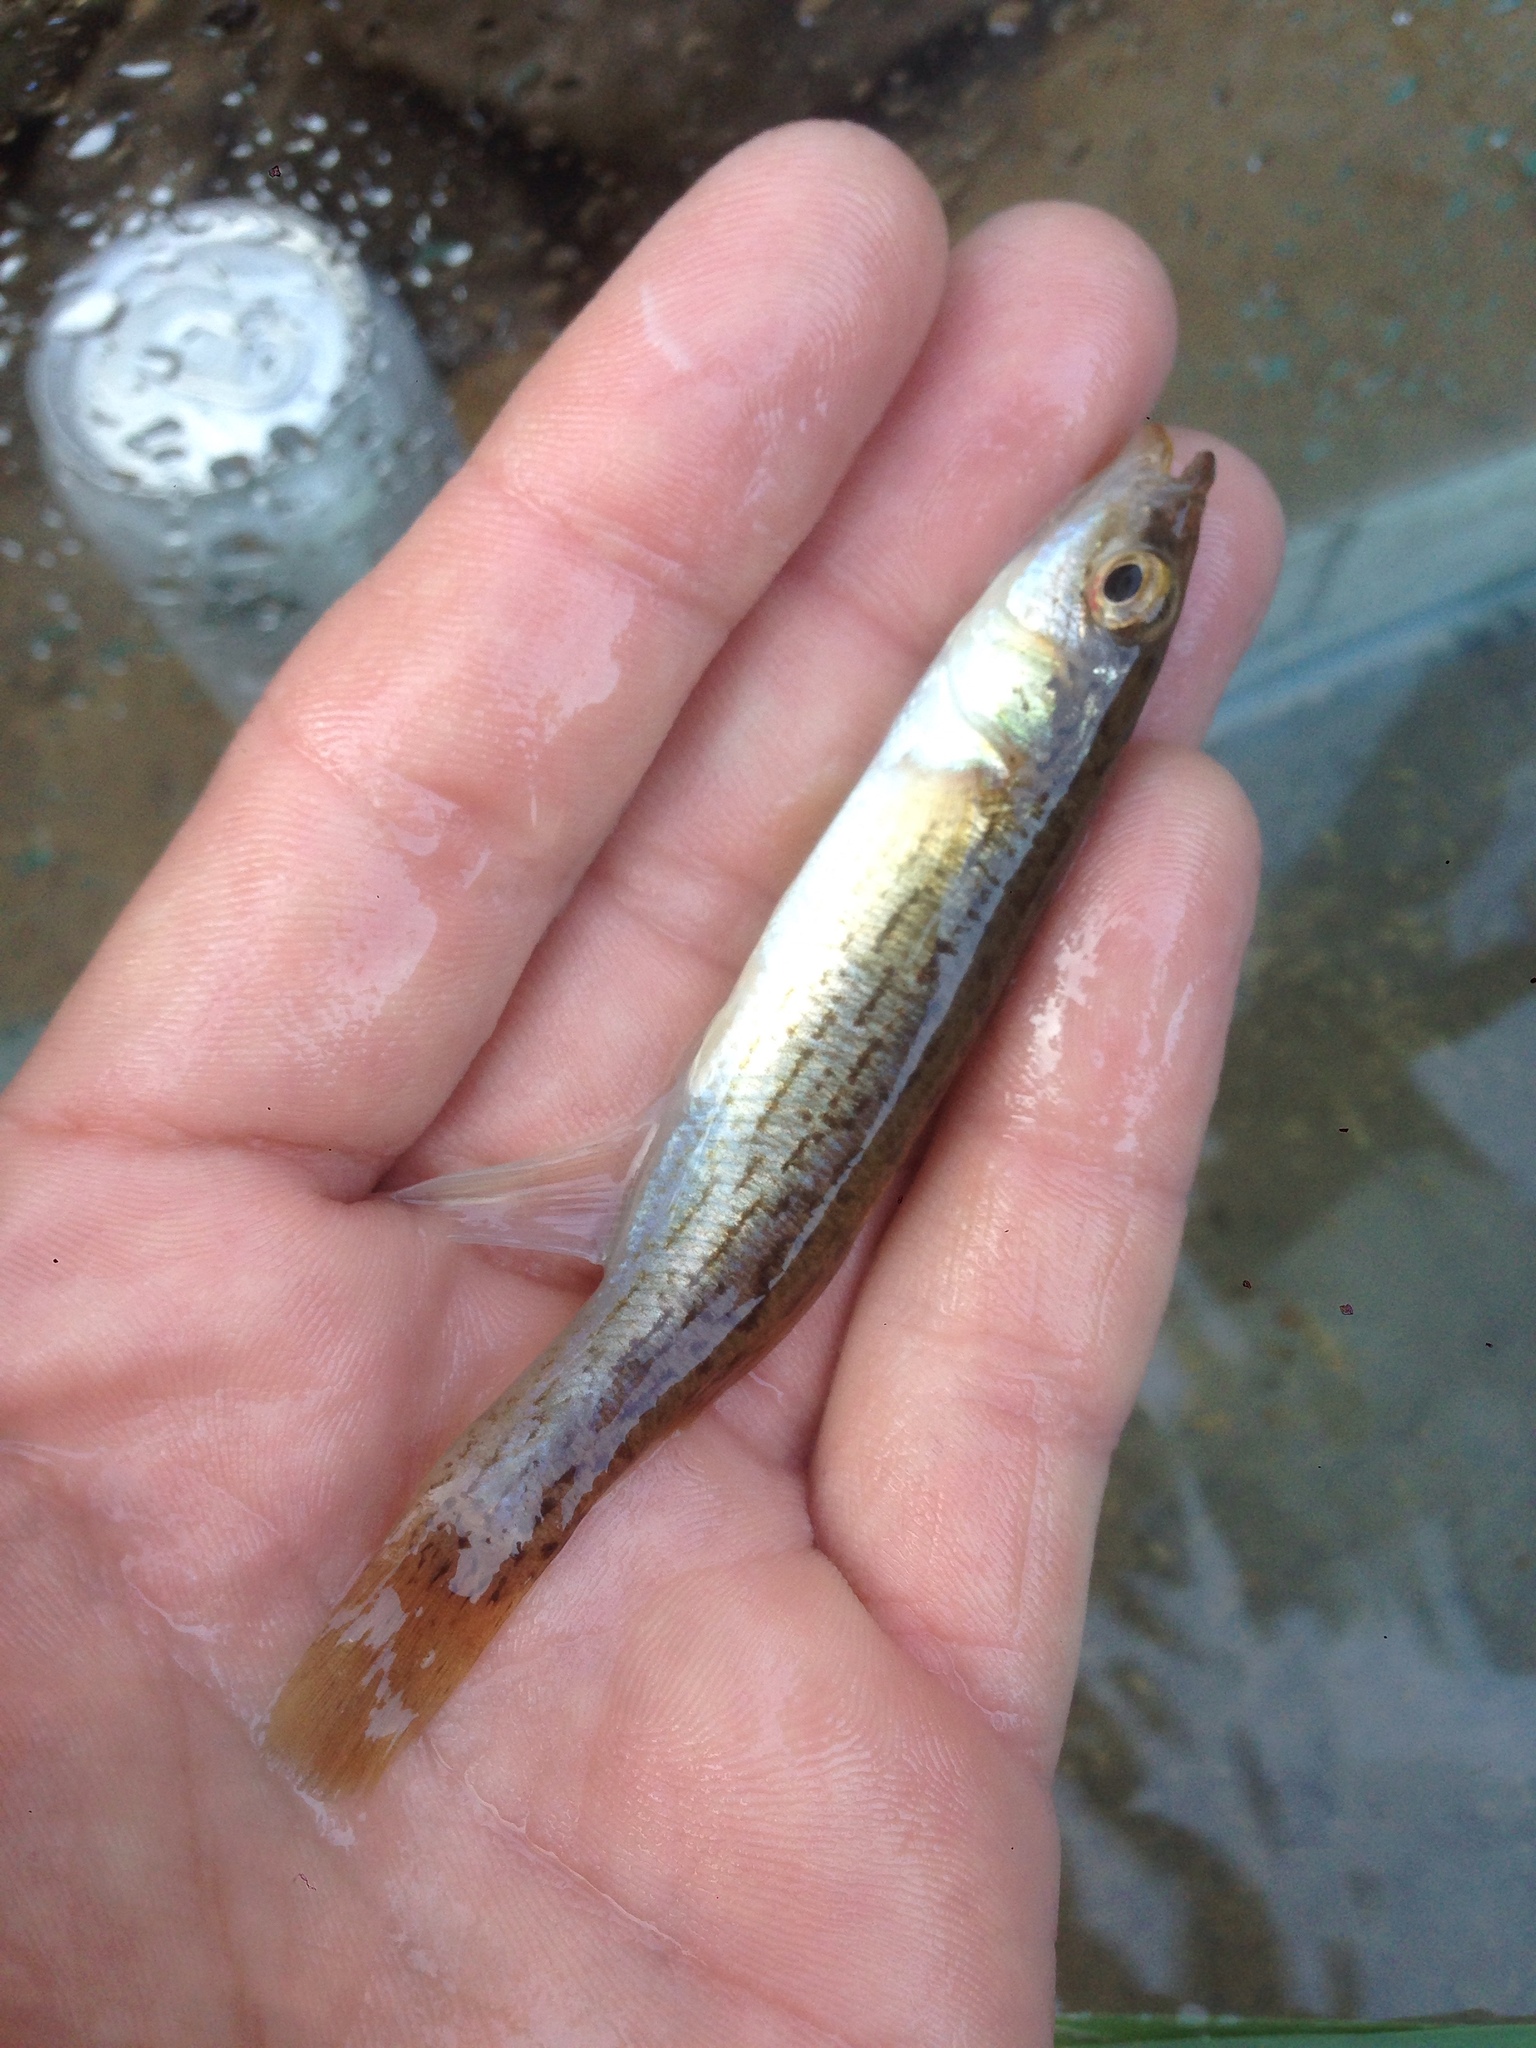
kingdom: Animalia
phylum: Chordata
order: Cyprinodontiformes
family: Fundulidae
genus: Fundulus
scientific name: Fundulus catenatus
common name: Northern studfish
